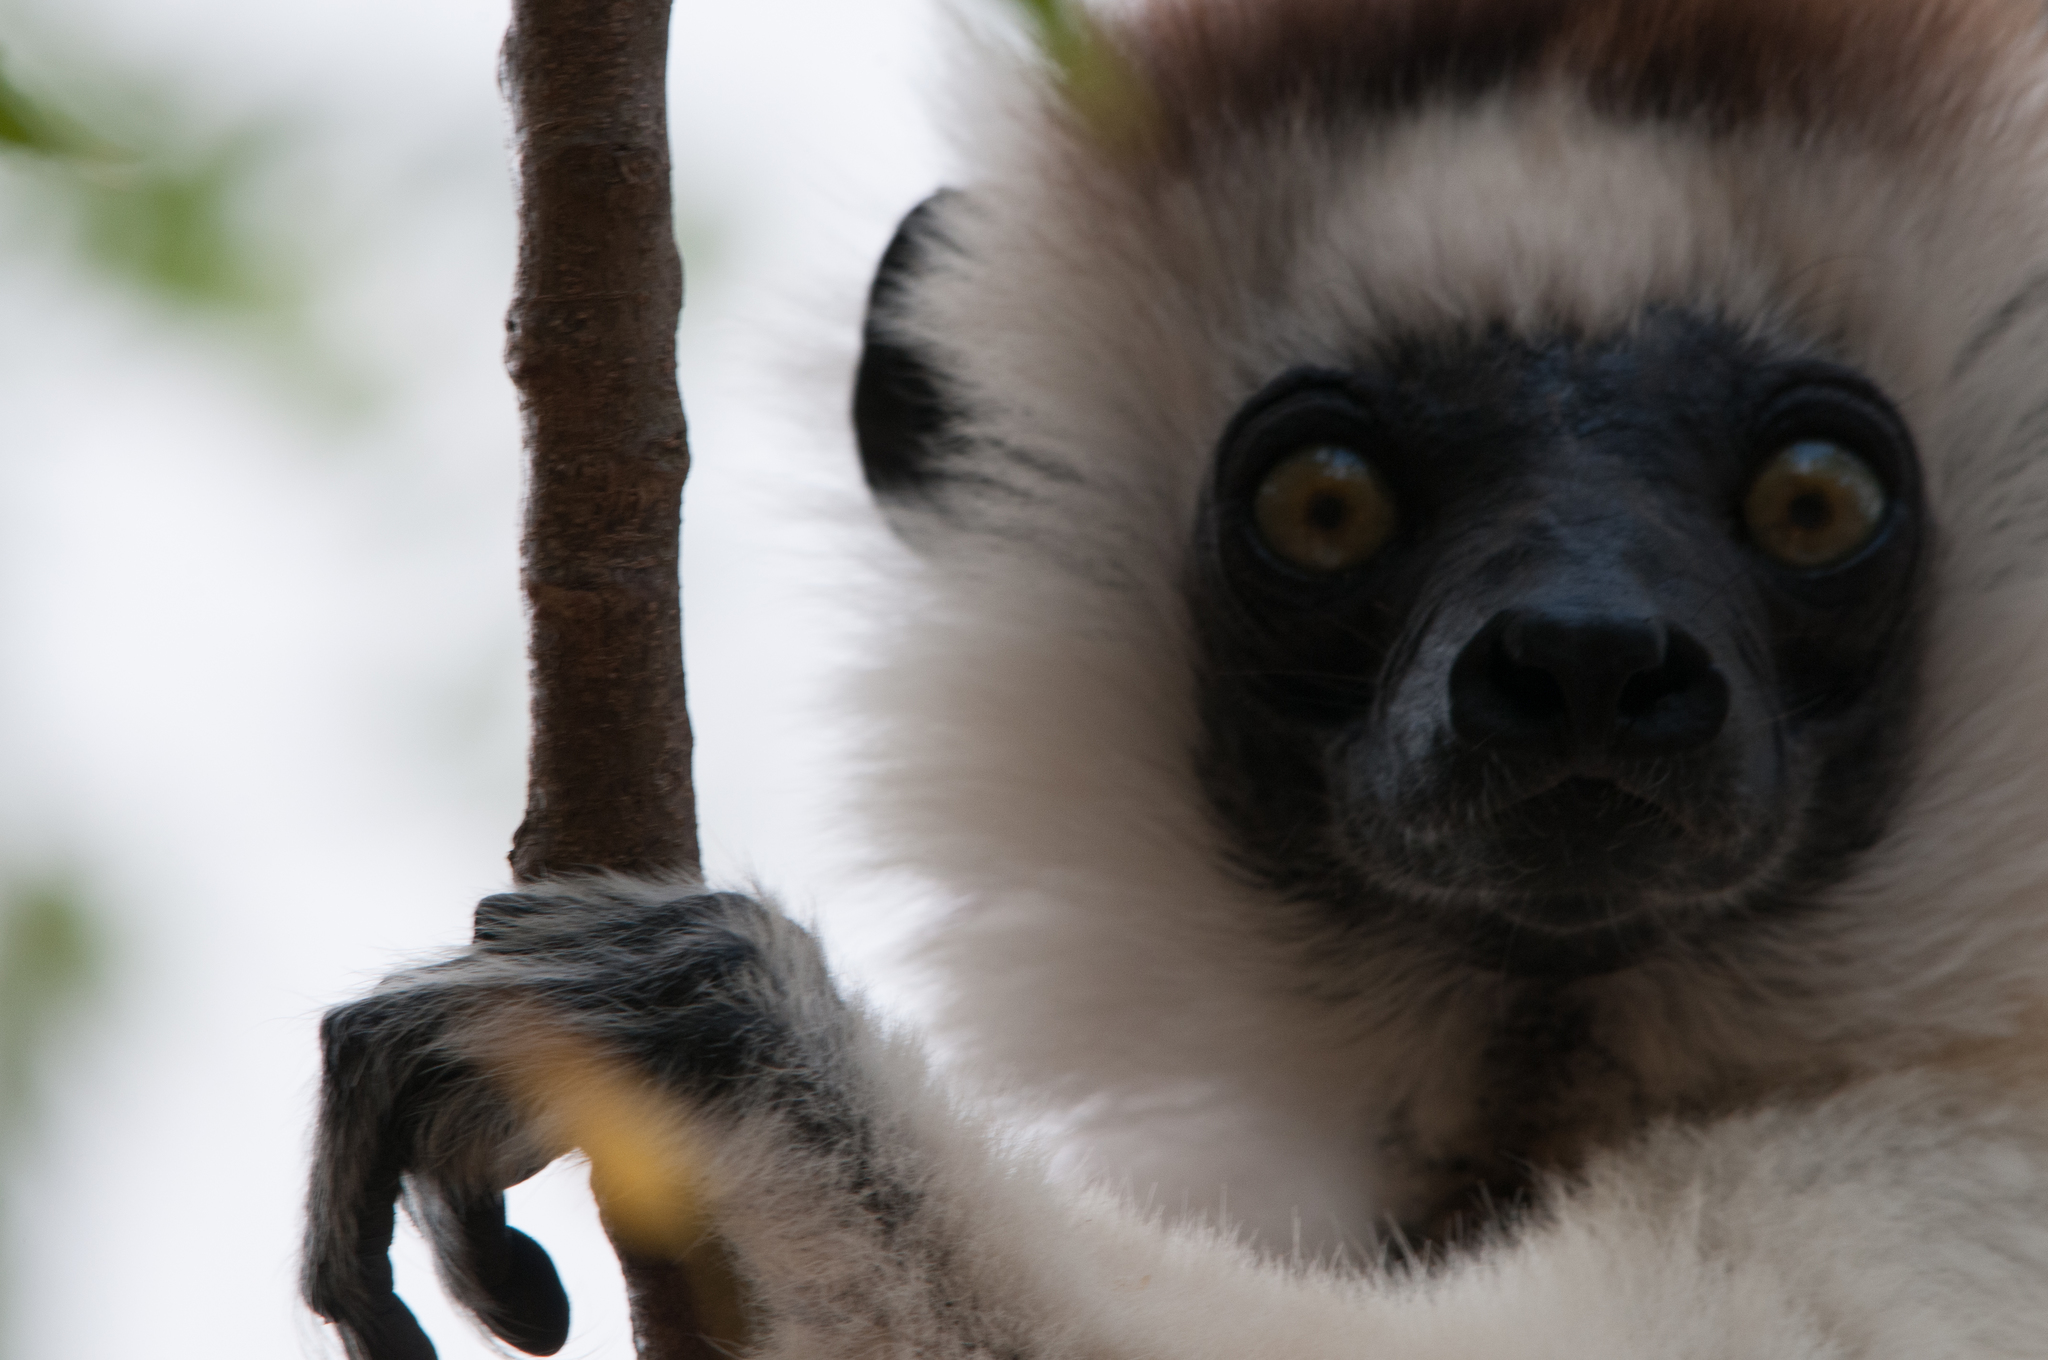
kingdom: Animalia
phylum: Chordata
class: Mammalia
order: Primates
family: Indriidae
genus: Propithecus
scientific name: Propithecus verreauxi
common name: Verreaux's sifaka
